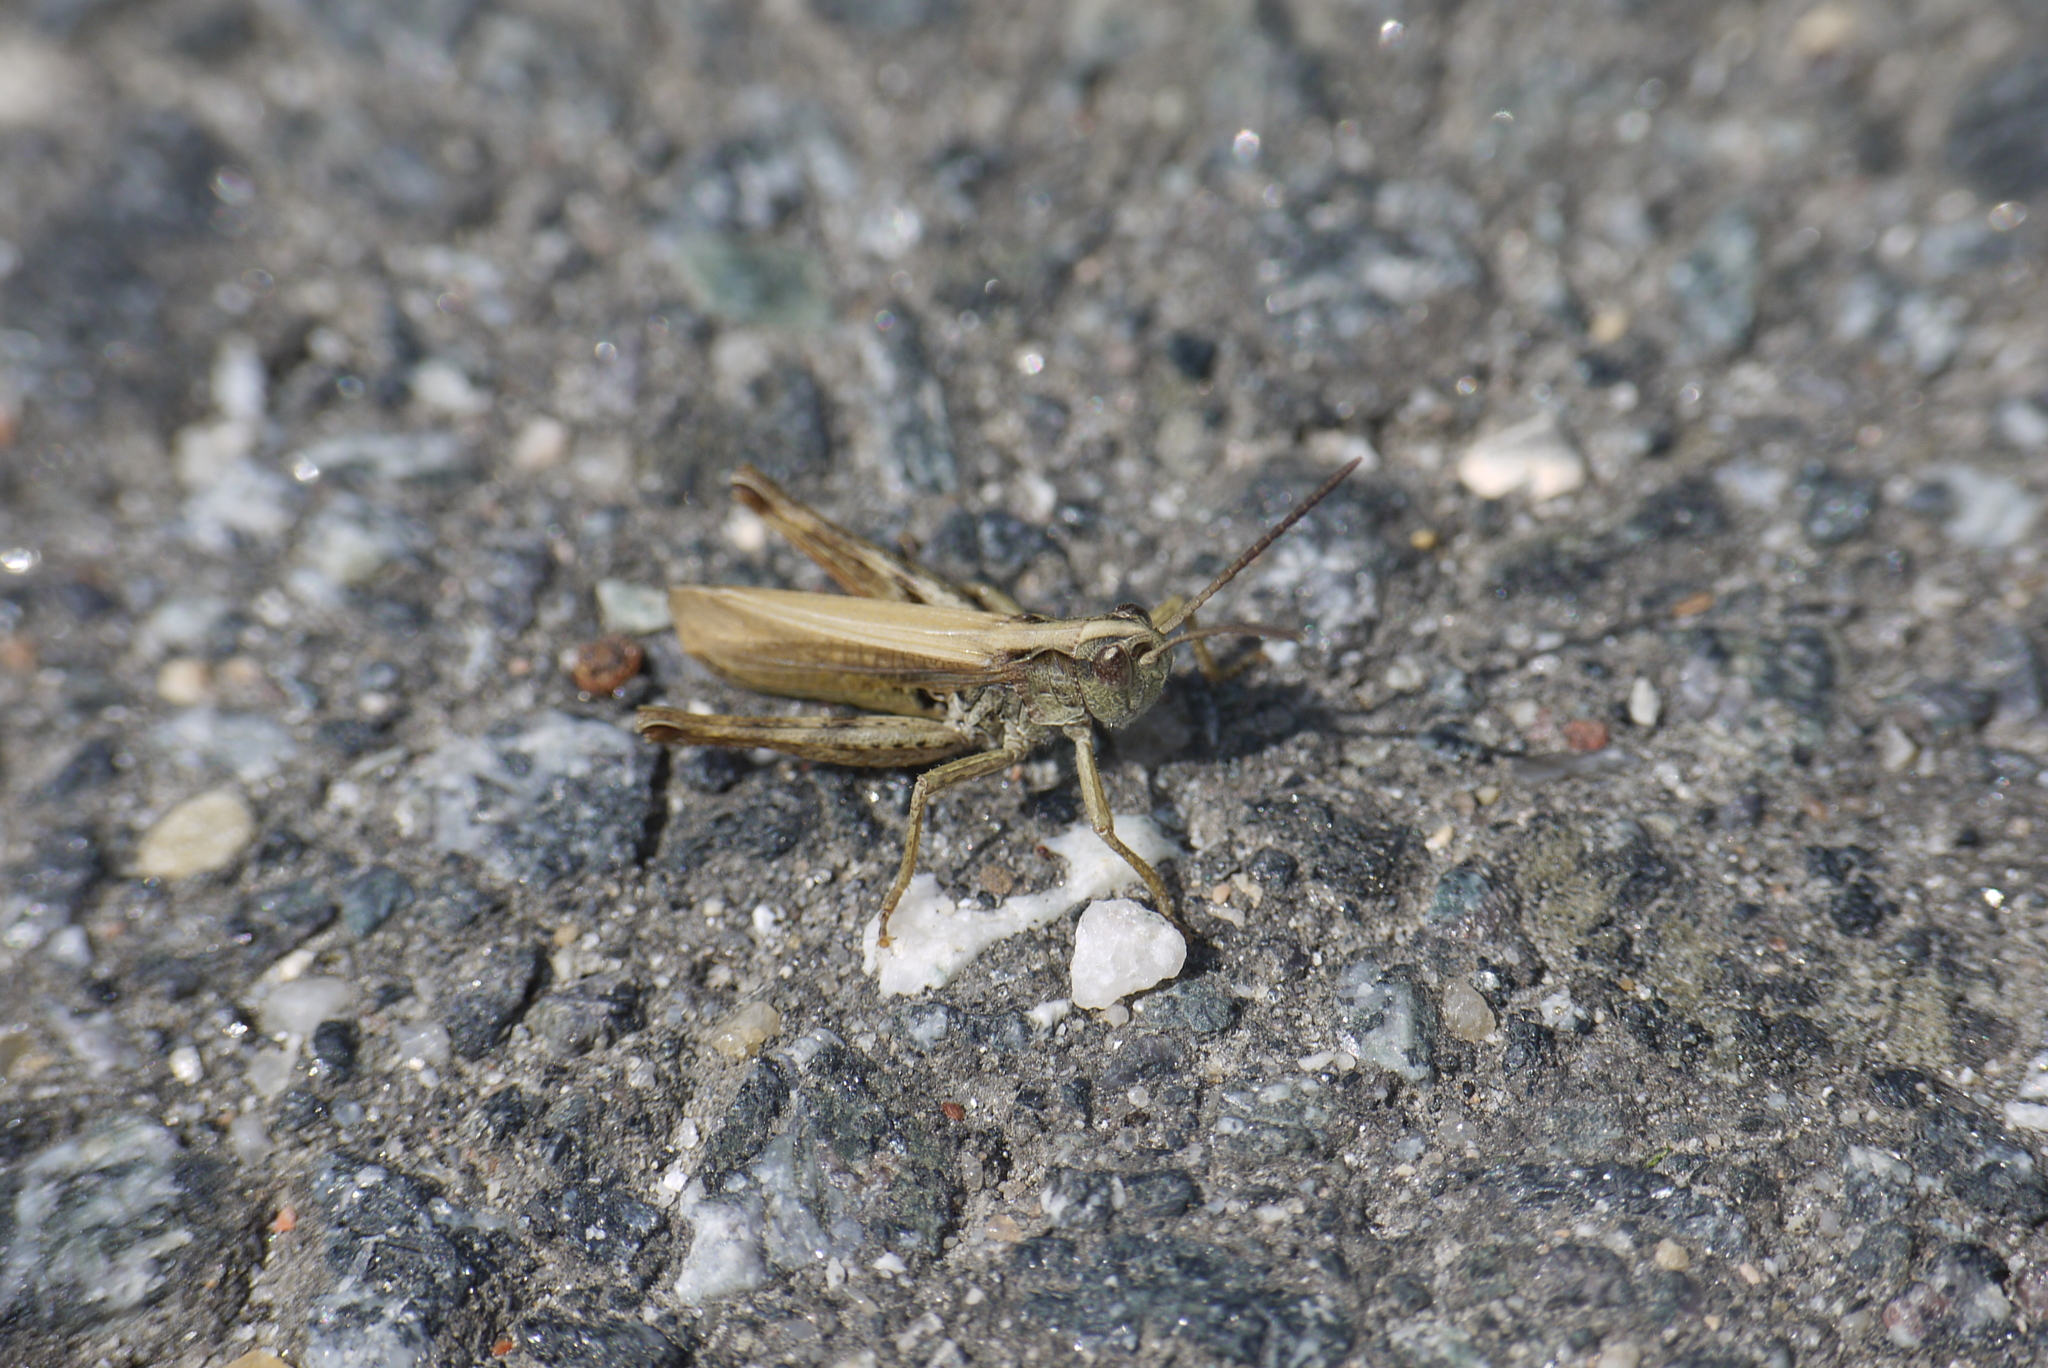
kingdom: Animalia
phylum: Arthropoda
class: Insecta
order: Orthoptera
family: Acrididae
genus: Chorthippus
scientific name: Chorthippus apricarius
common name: Upland field grasshopper
